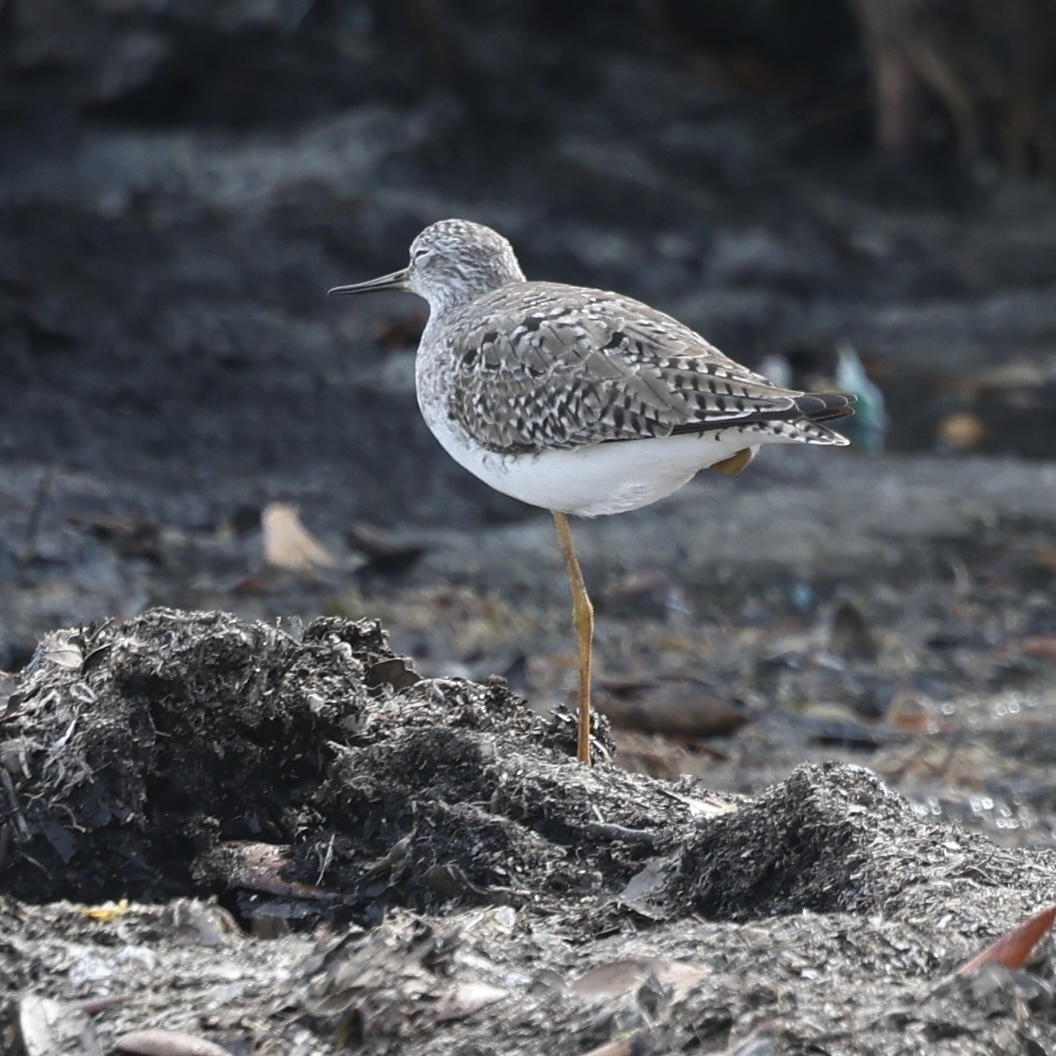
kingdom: Animalia
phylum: Chordata
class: Aves
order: Charadriiformes
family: Scolopacidae
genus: Tringa
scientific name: Tringa melanoleuca
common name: Greater yellowlegs
